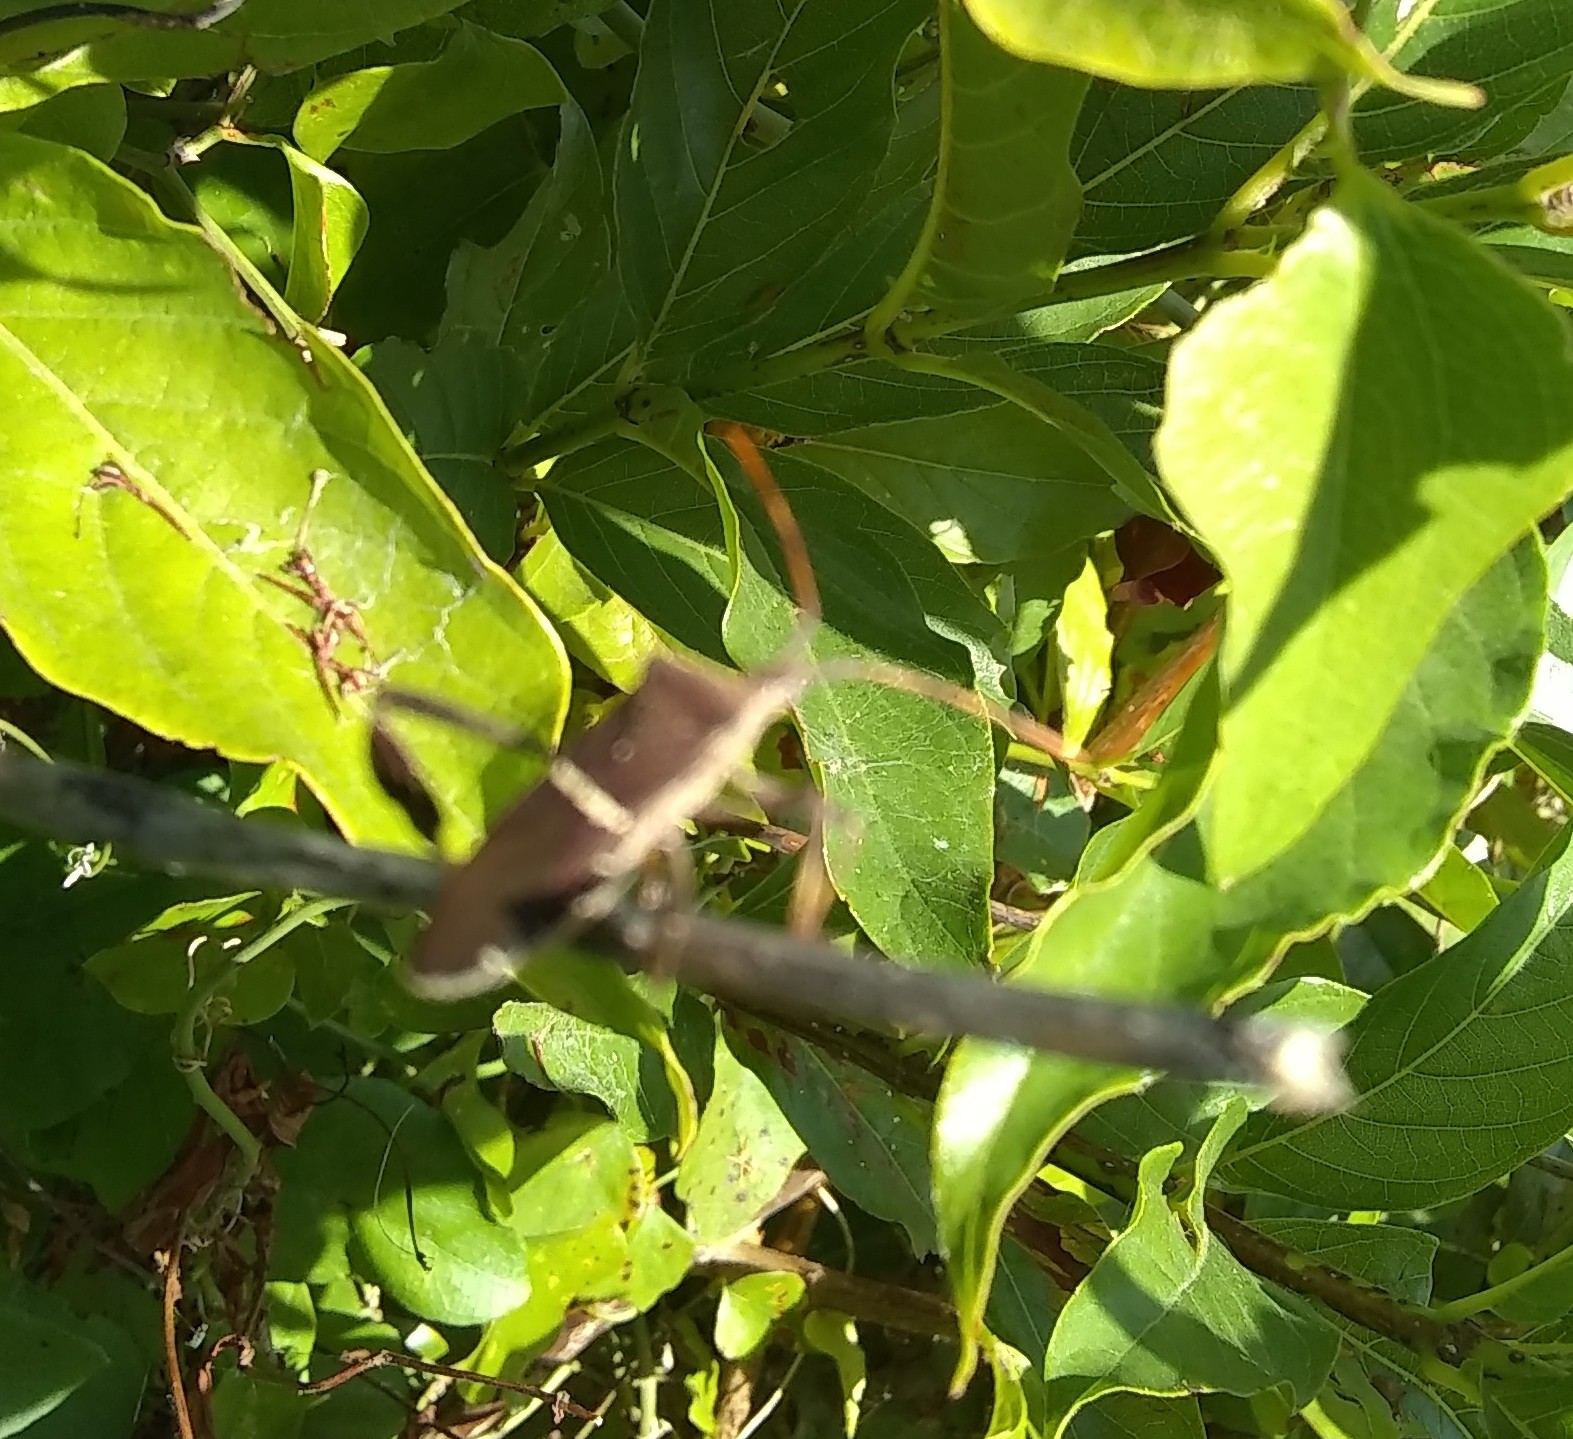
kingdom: Animalia
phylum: Arthropoda
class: Insecta
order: Hemiptera
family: Coreidae
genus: Leptoglossus
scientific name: Leptoglossus phyllopus
